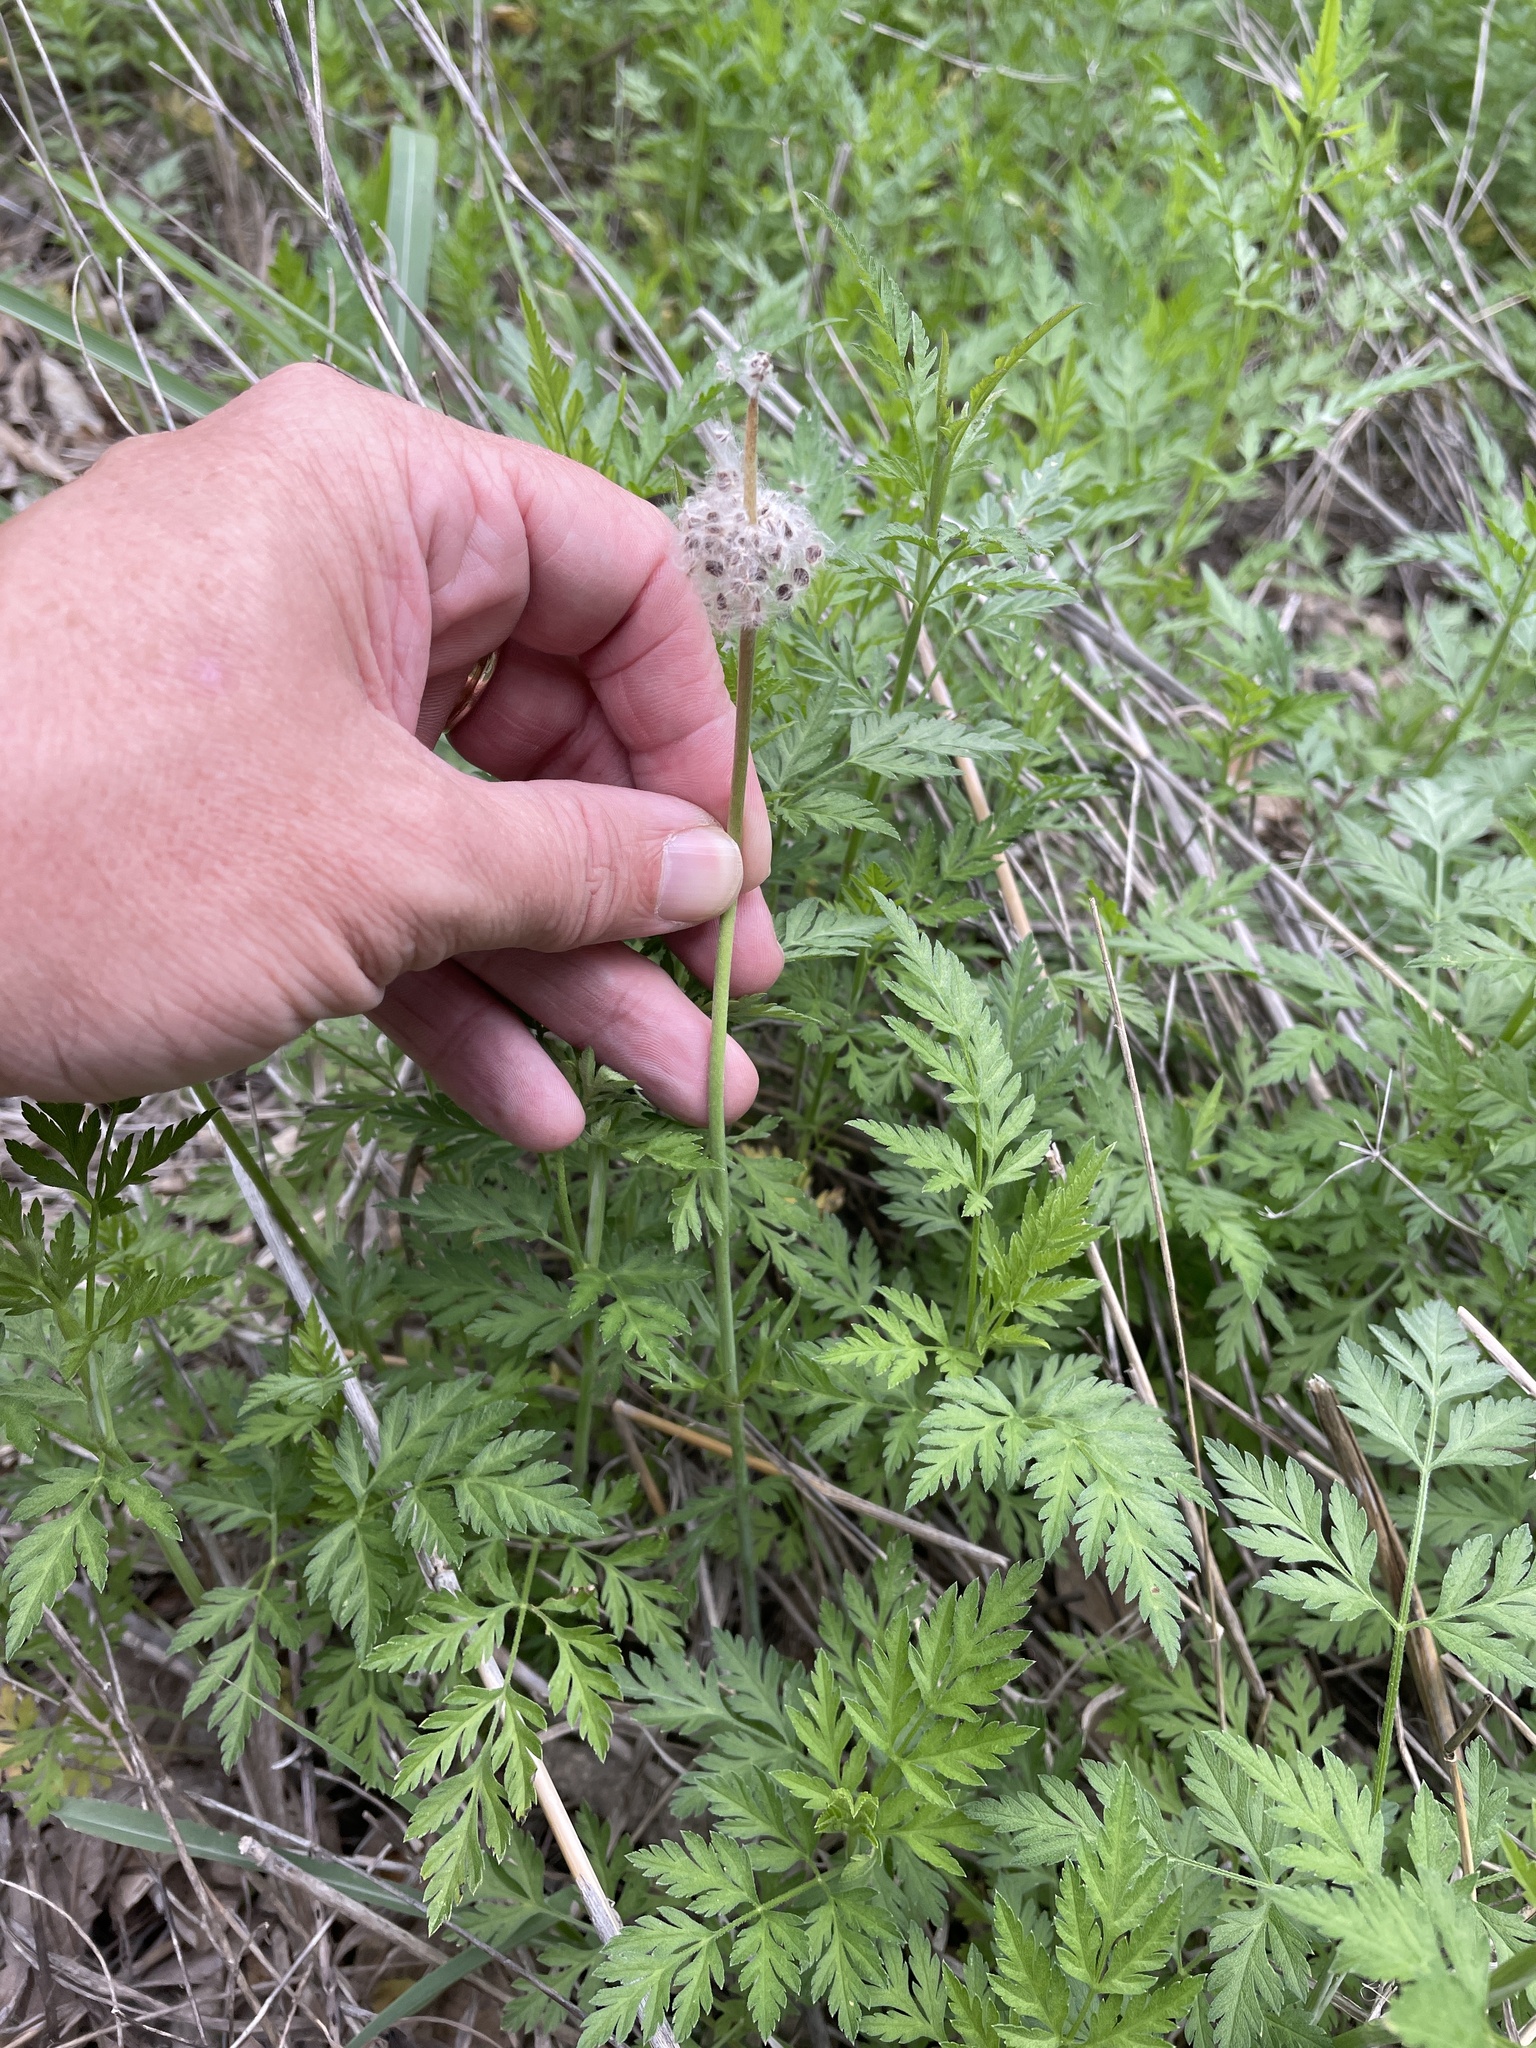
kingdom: Plantae
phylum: Tracheophyta
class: Magnoliopsida
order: Ranunculales
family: Ranunculaceae
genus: Anemone
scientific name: Anemone berlandieri
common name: Ten-petal anemone
